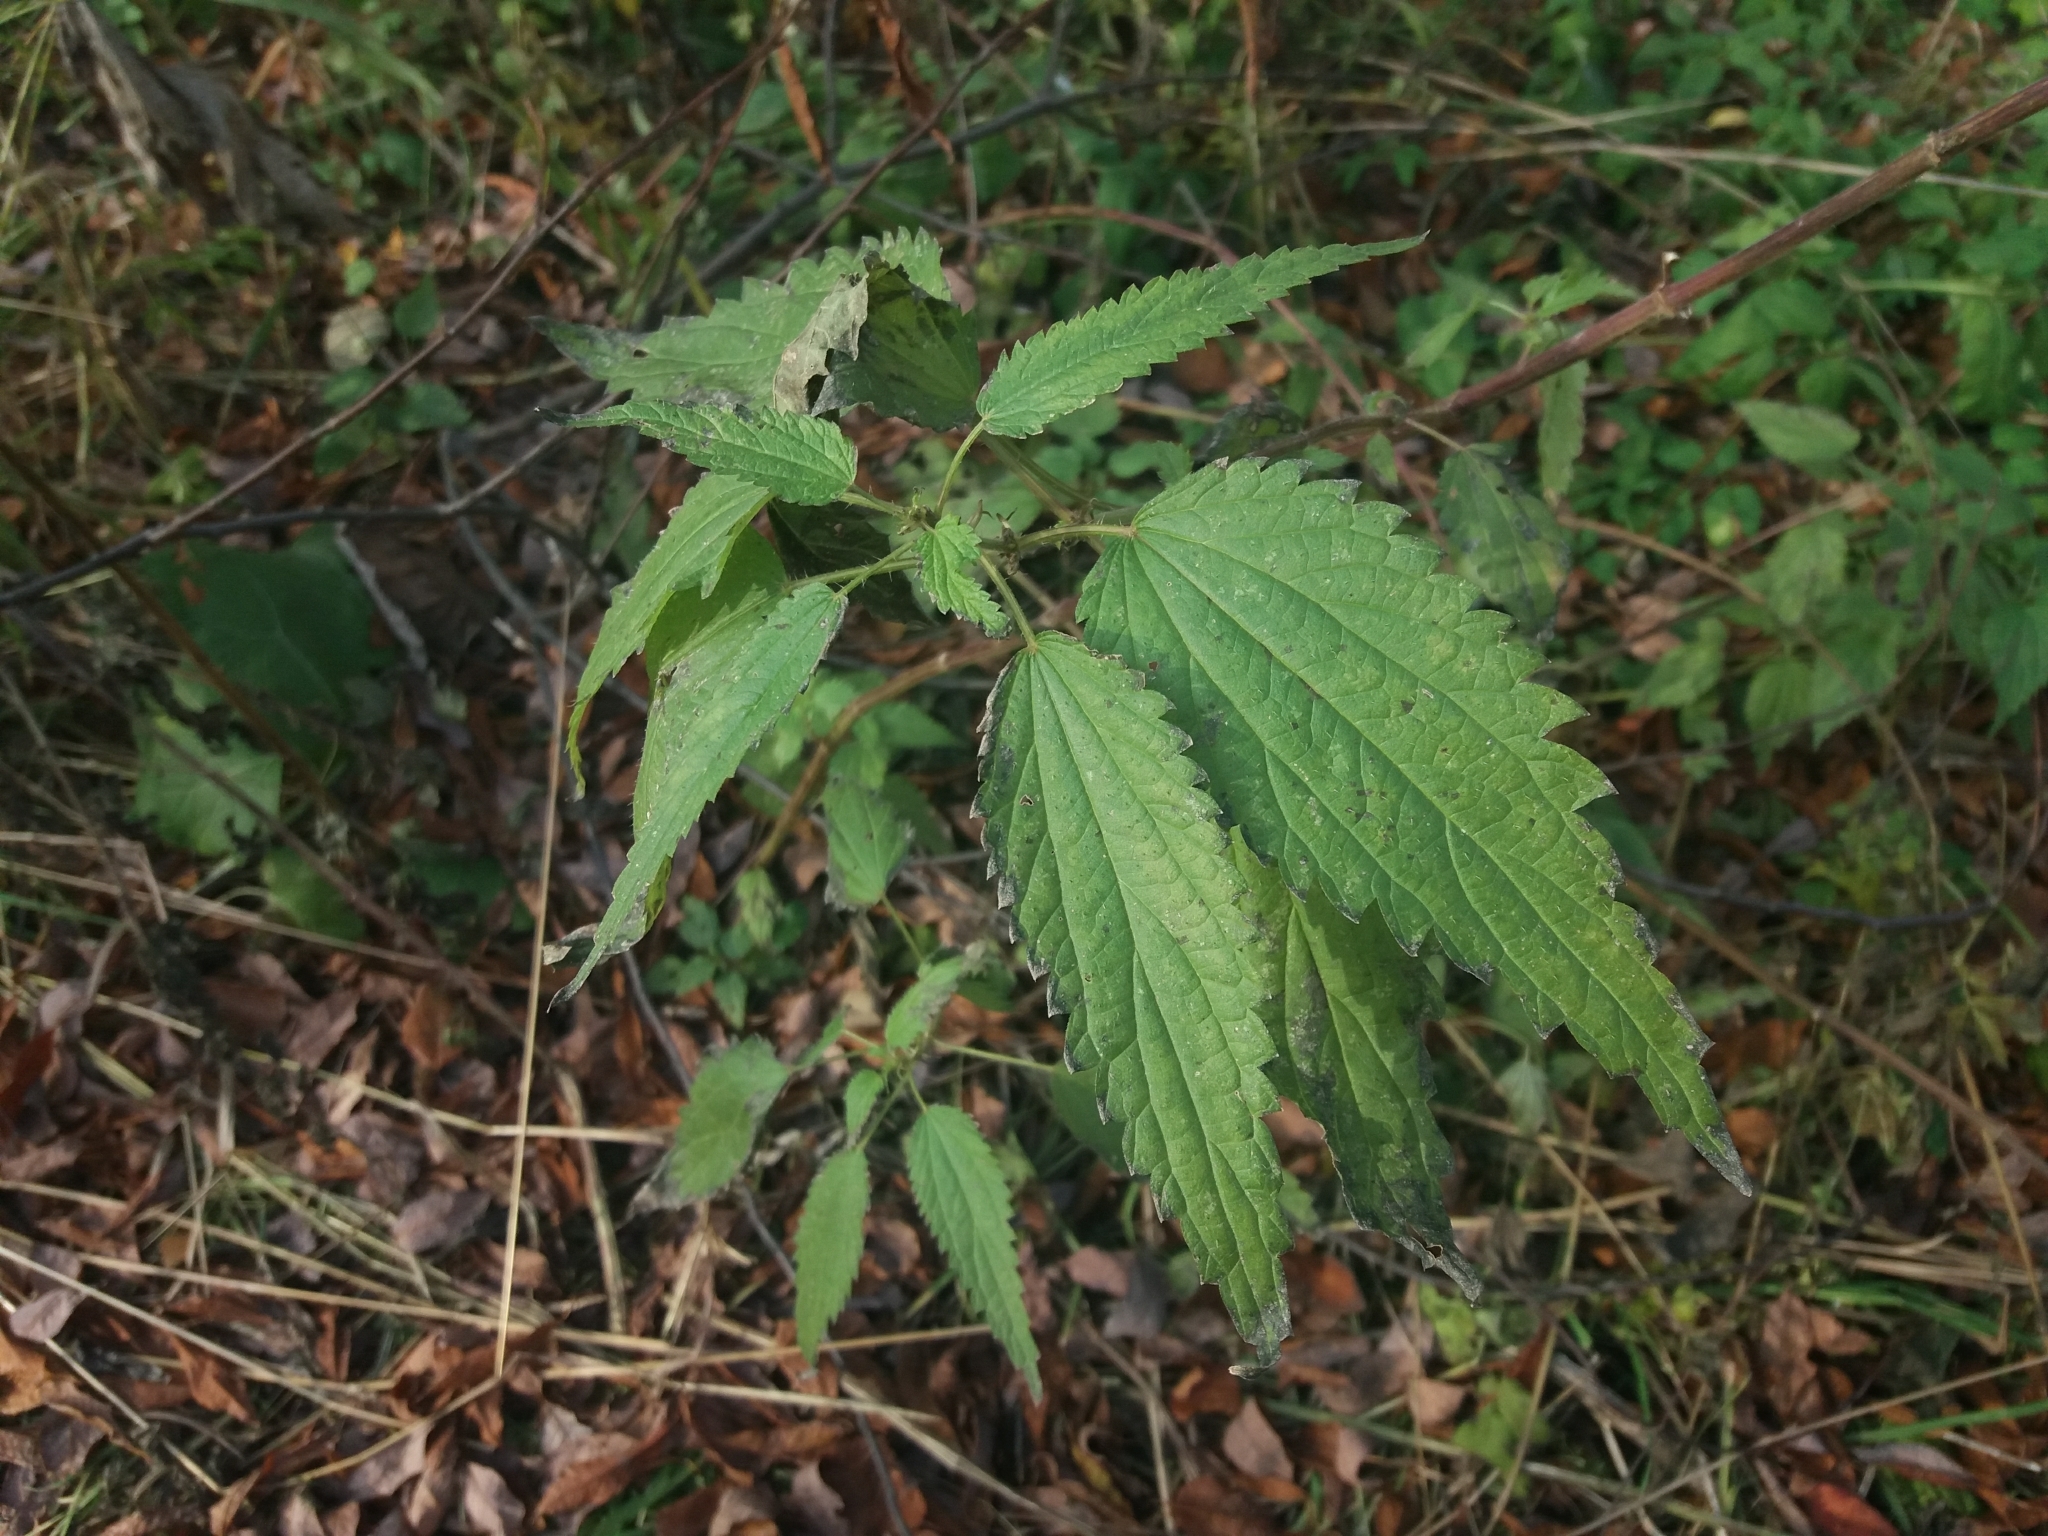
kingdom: Plantae
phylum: Tracheophyta
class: Magnoliopsida
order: Rosales
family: Urticaceae
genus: Urtica
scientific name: Urtica galeopsifolia
